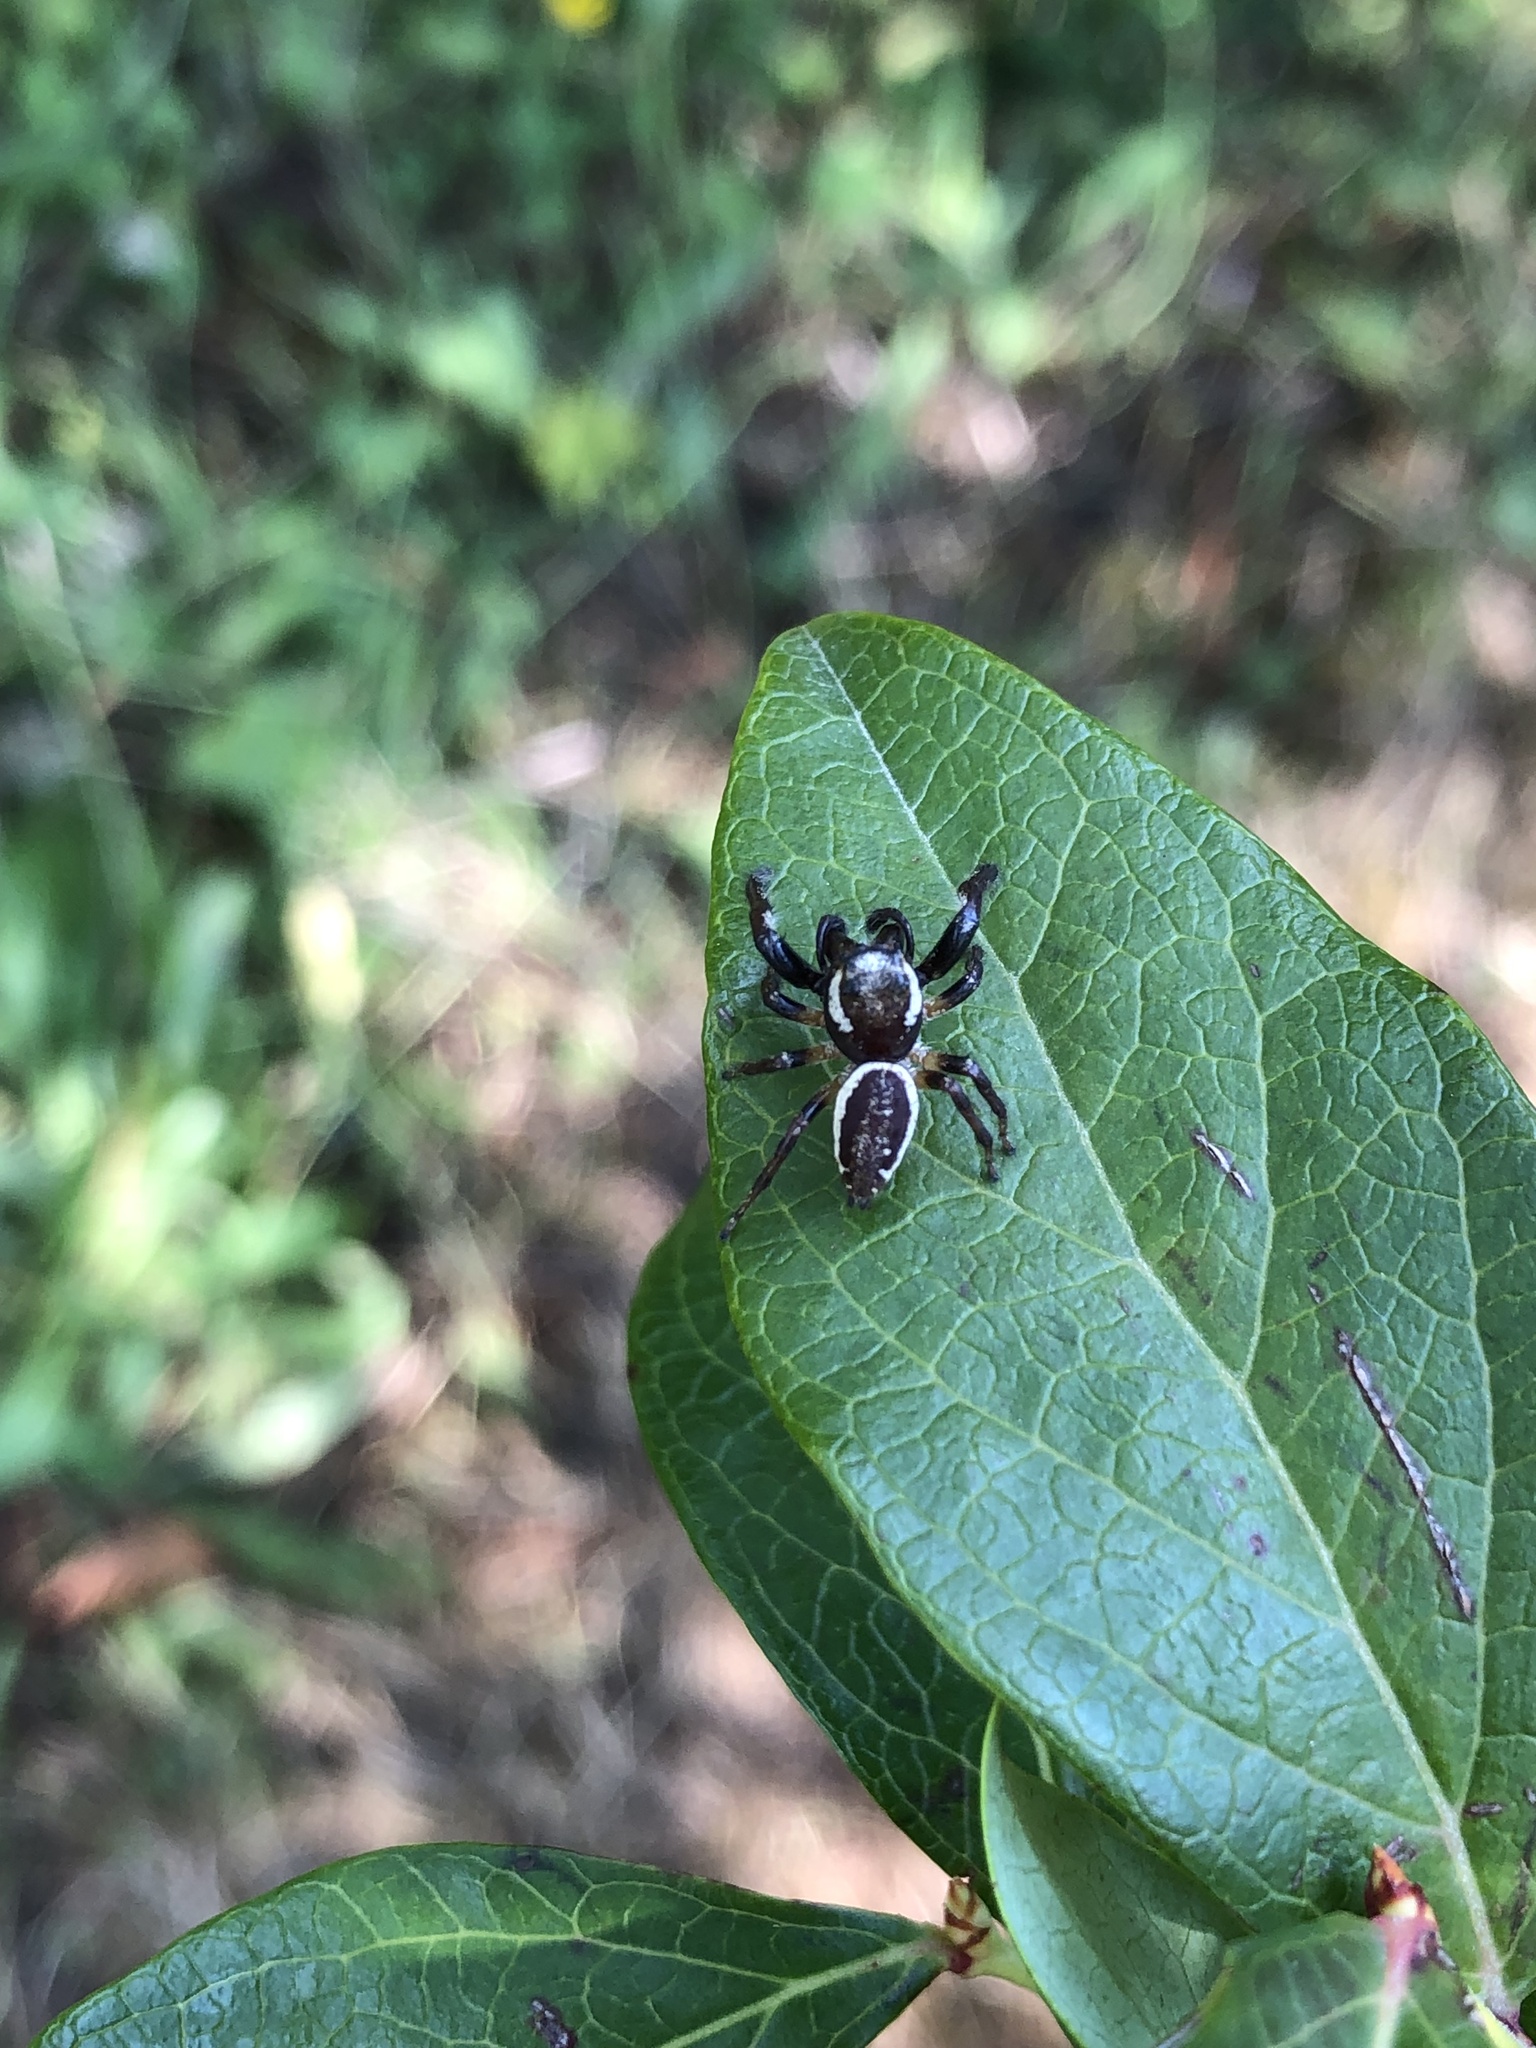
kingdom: Animalia
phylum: Arthropoda
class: Arachnida
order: Araneae
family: Salticidae
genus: Eris
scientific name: Eris militaris
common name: Bronze jumper
